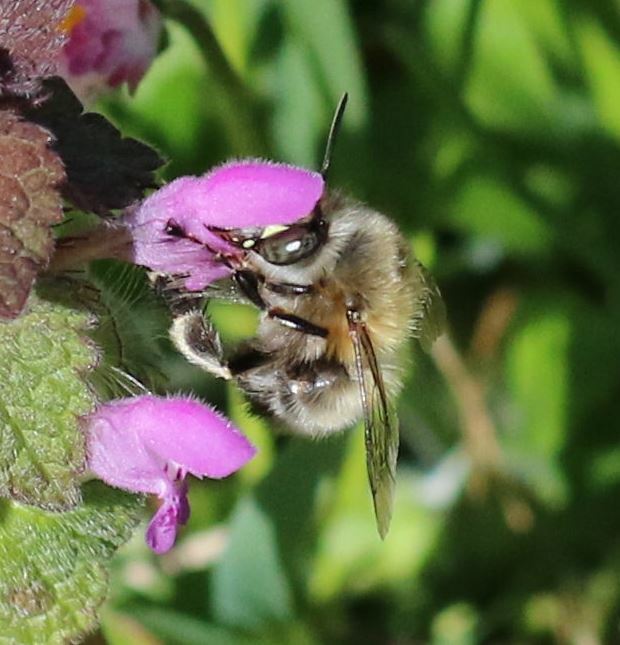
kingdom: Animalia
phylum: Arthropoda
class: Insecta
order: Hymenoptera
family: Apidae
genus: Anthophora
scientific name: Anthophora plumipes
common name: Hairy-footed flower bee
